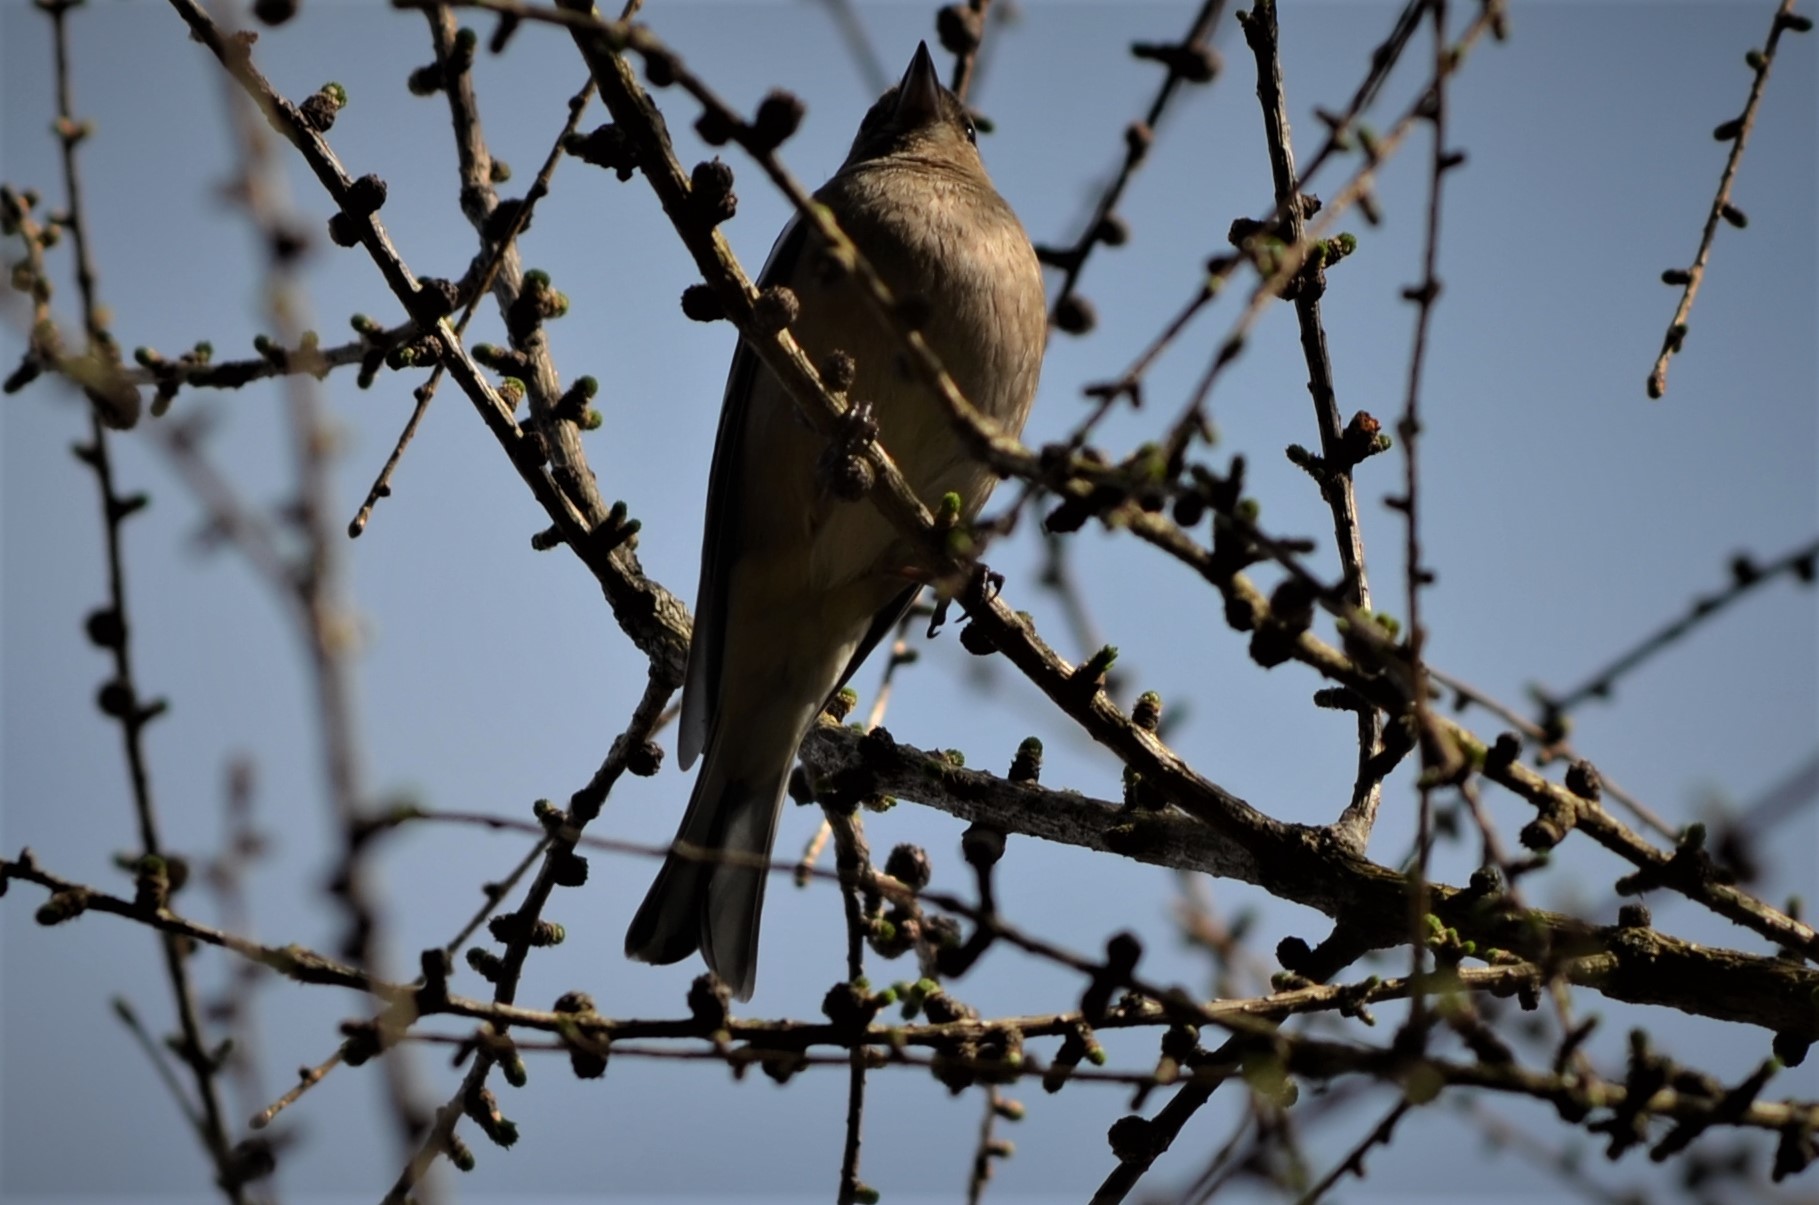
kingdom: Animalia
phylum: Chordata
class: Aves
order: Passeriformes
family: Fringillidae
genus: Fringilla
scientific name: Fringilla coelebs
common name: Common chaffinch
